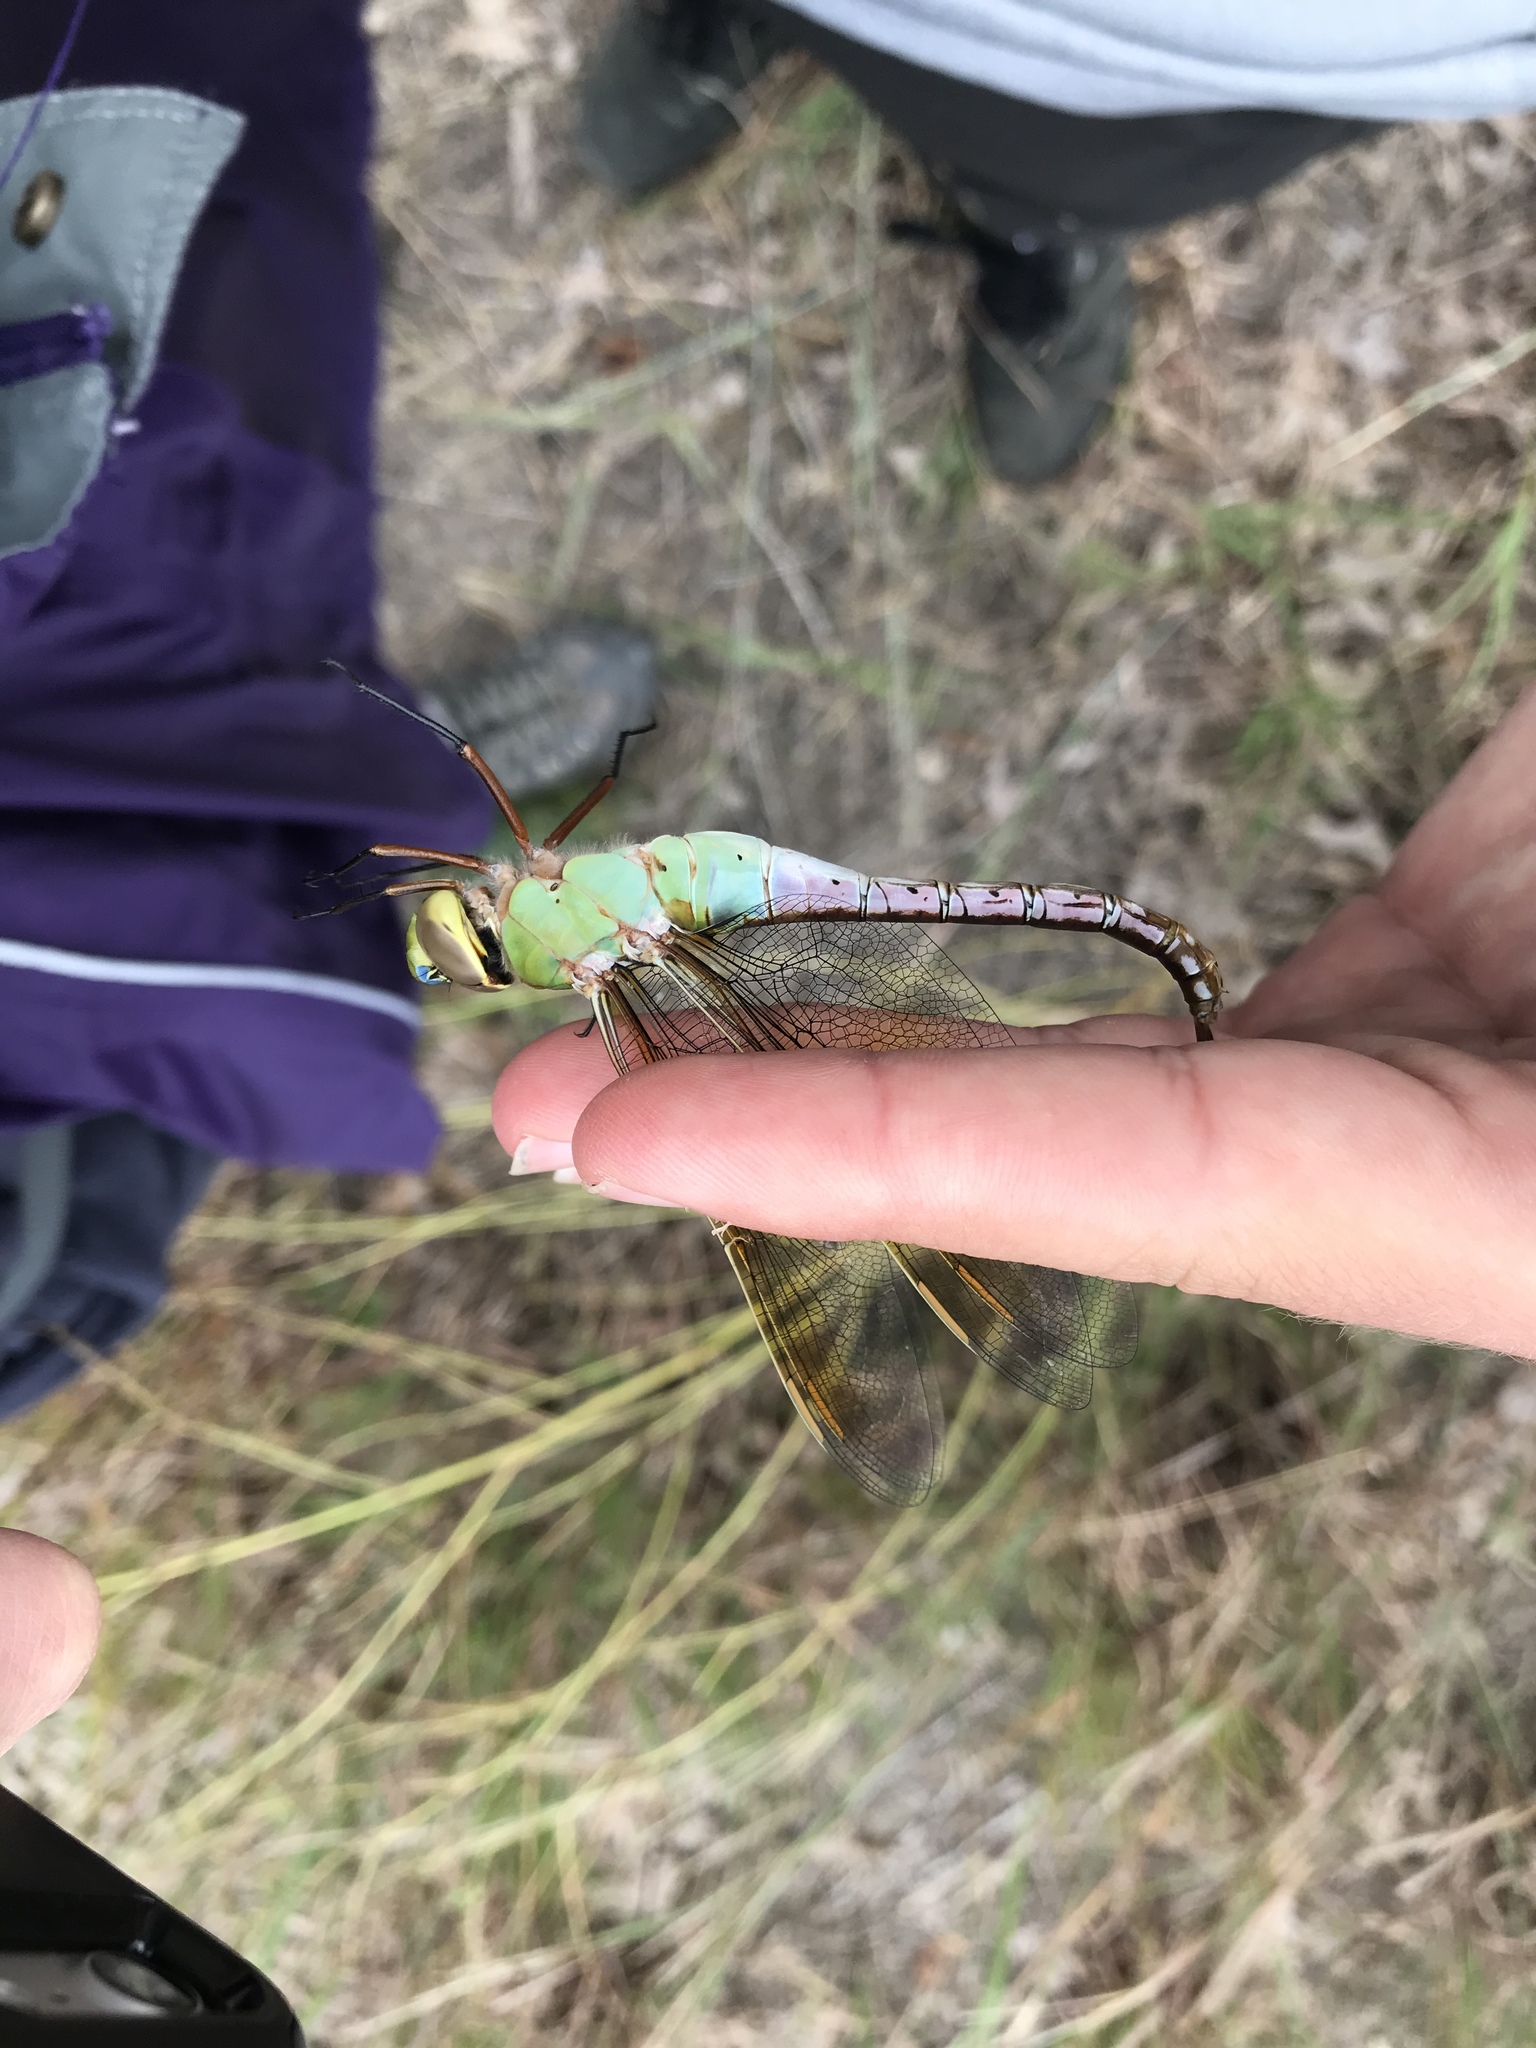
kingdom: Animalia
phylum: Arthropoda
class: Insecta
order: Odonata
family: Aeshnidae
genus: Anax
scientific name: Anax junius
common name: Common green darner
